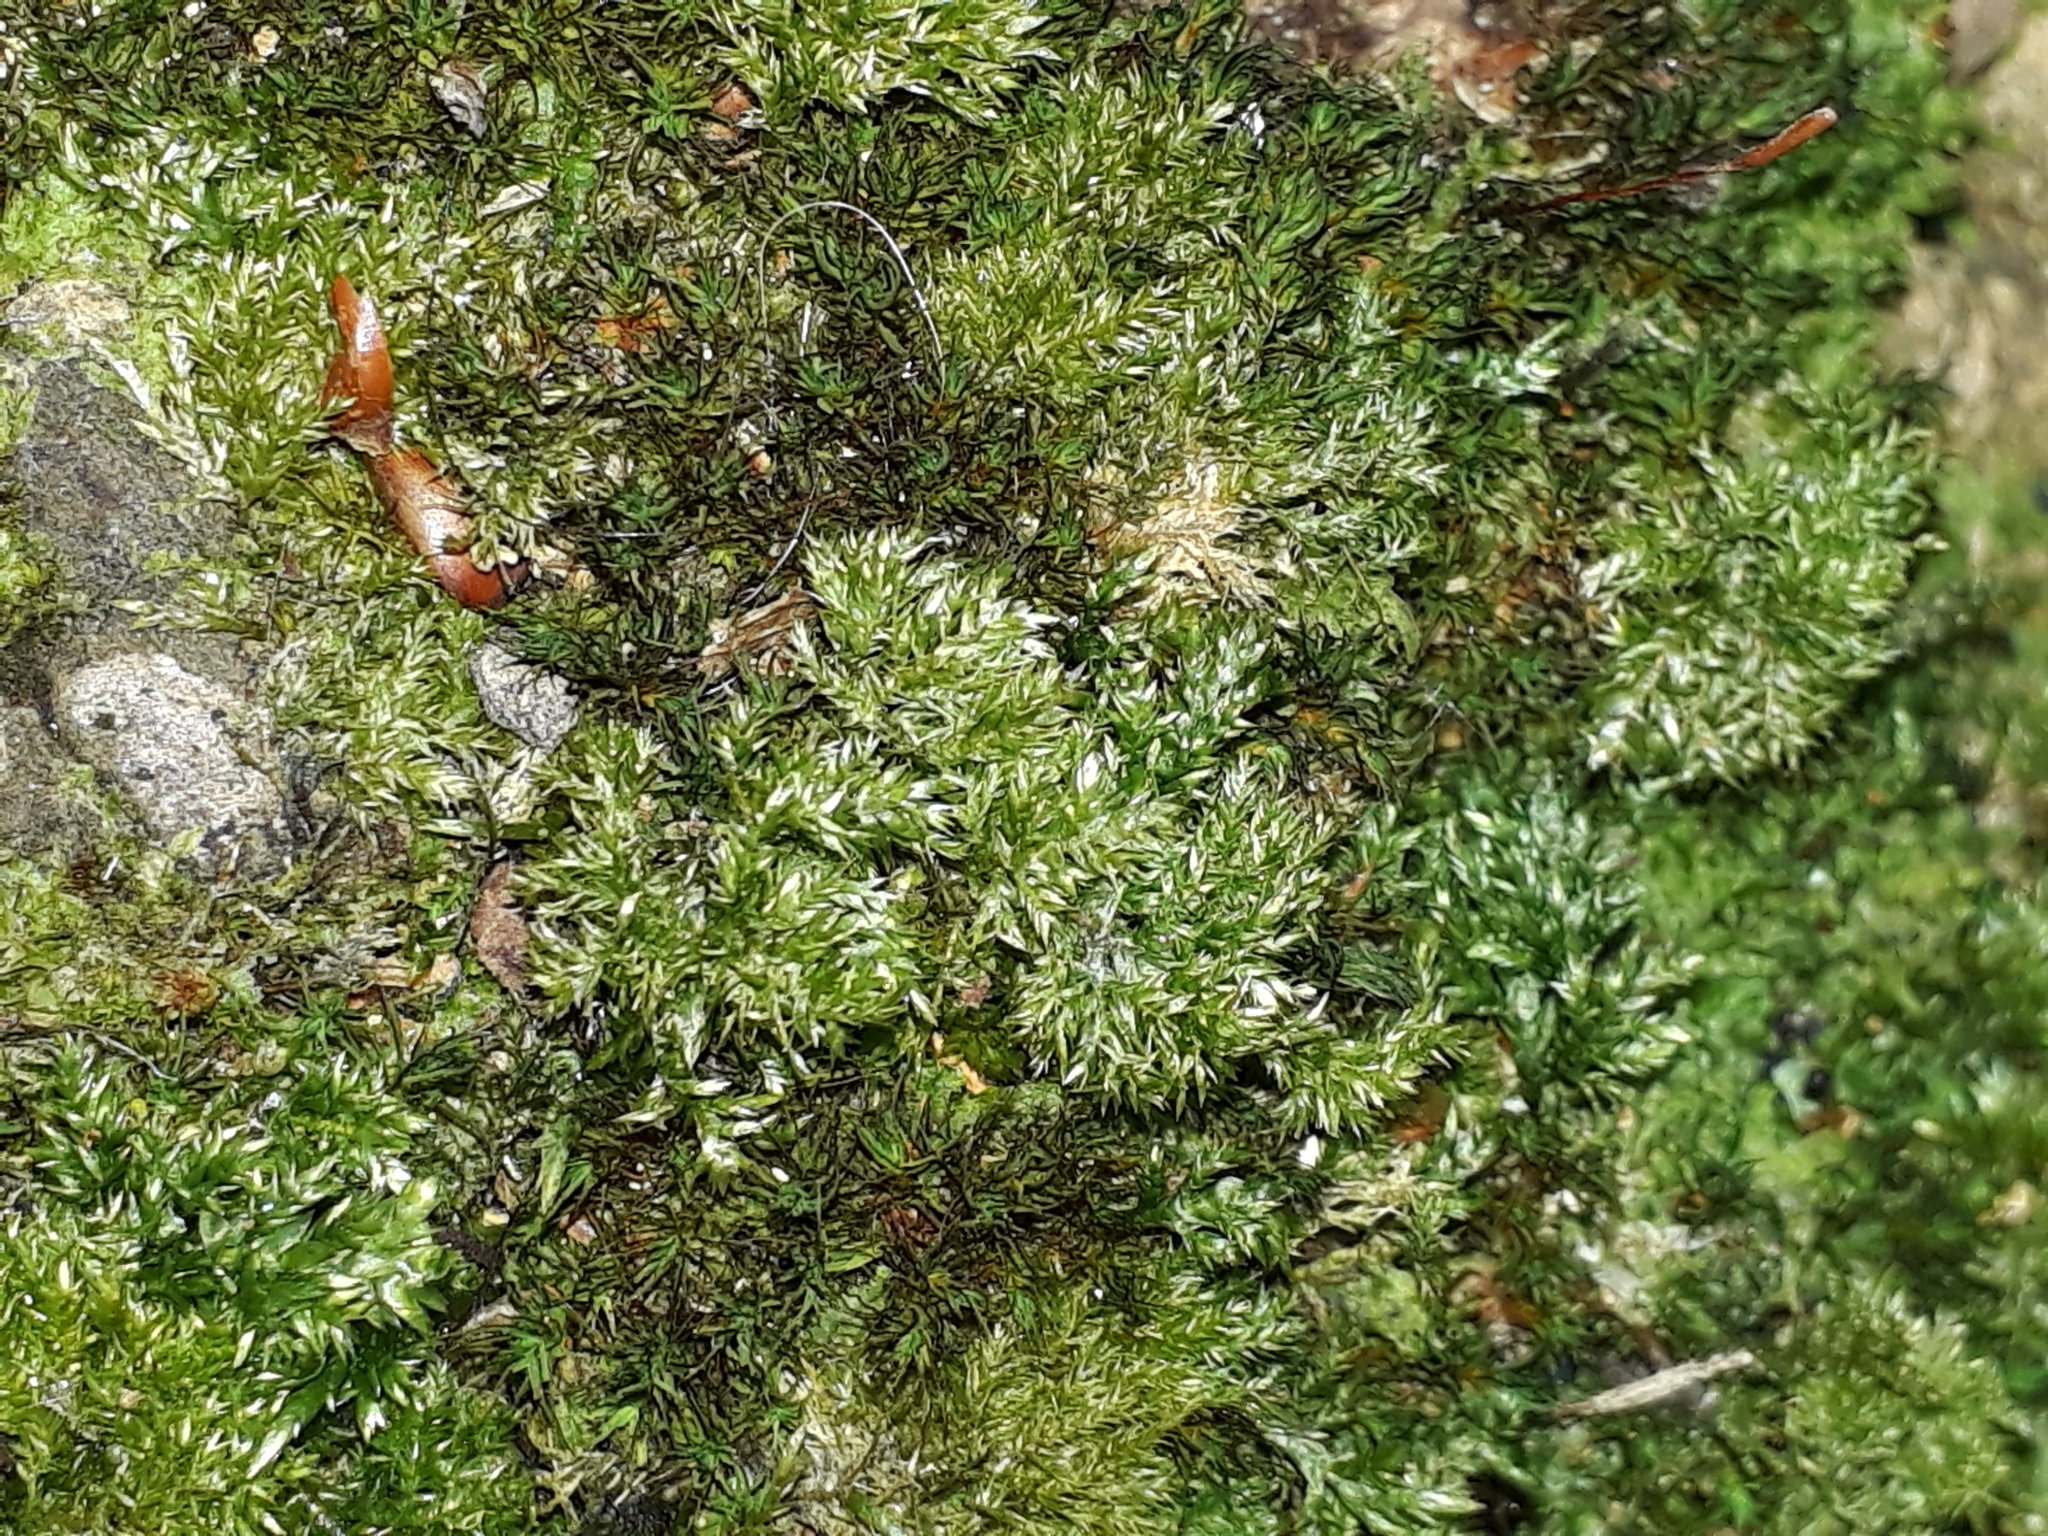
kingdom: Plantae
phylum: Bryophyta
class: Bryopsida
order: Hypnales
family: Lembophyllaceae
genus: Camptochaete
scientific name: Camptochaete angustata
